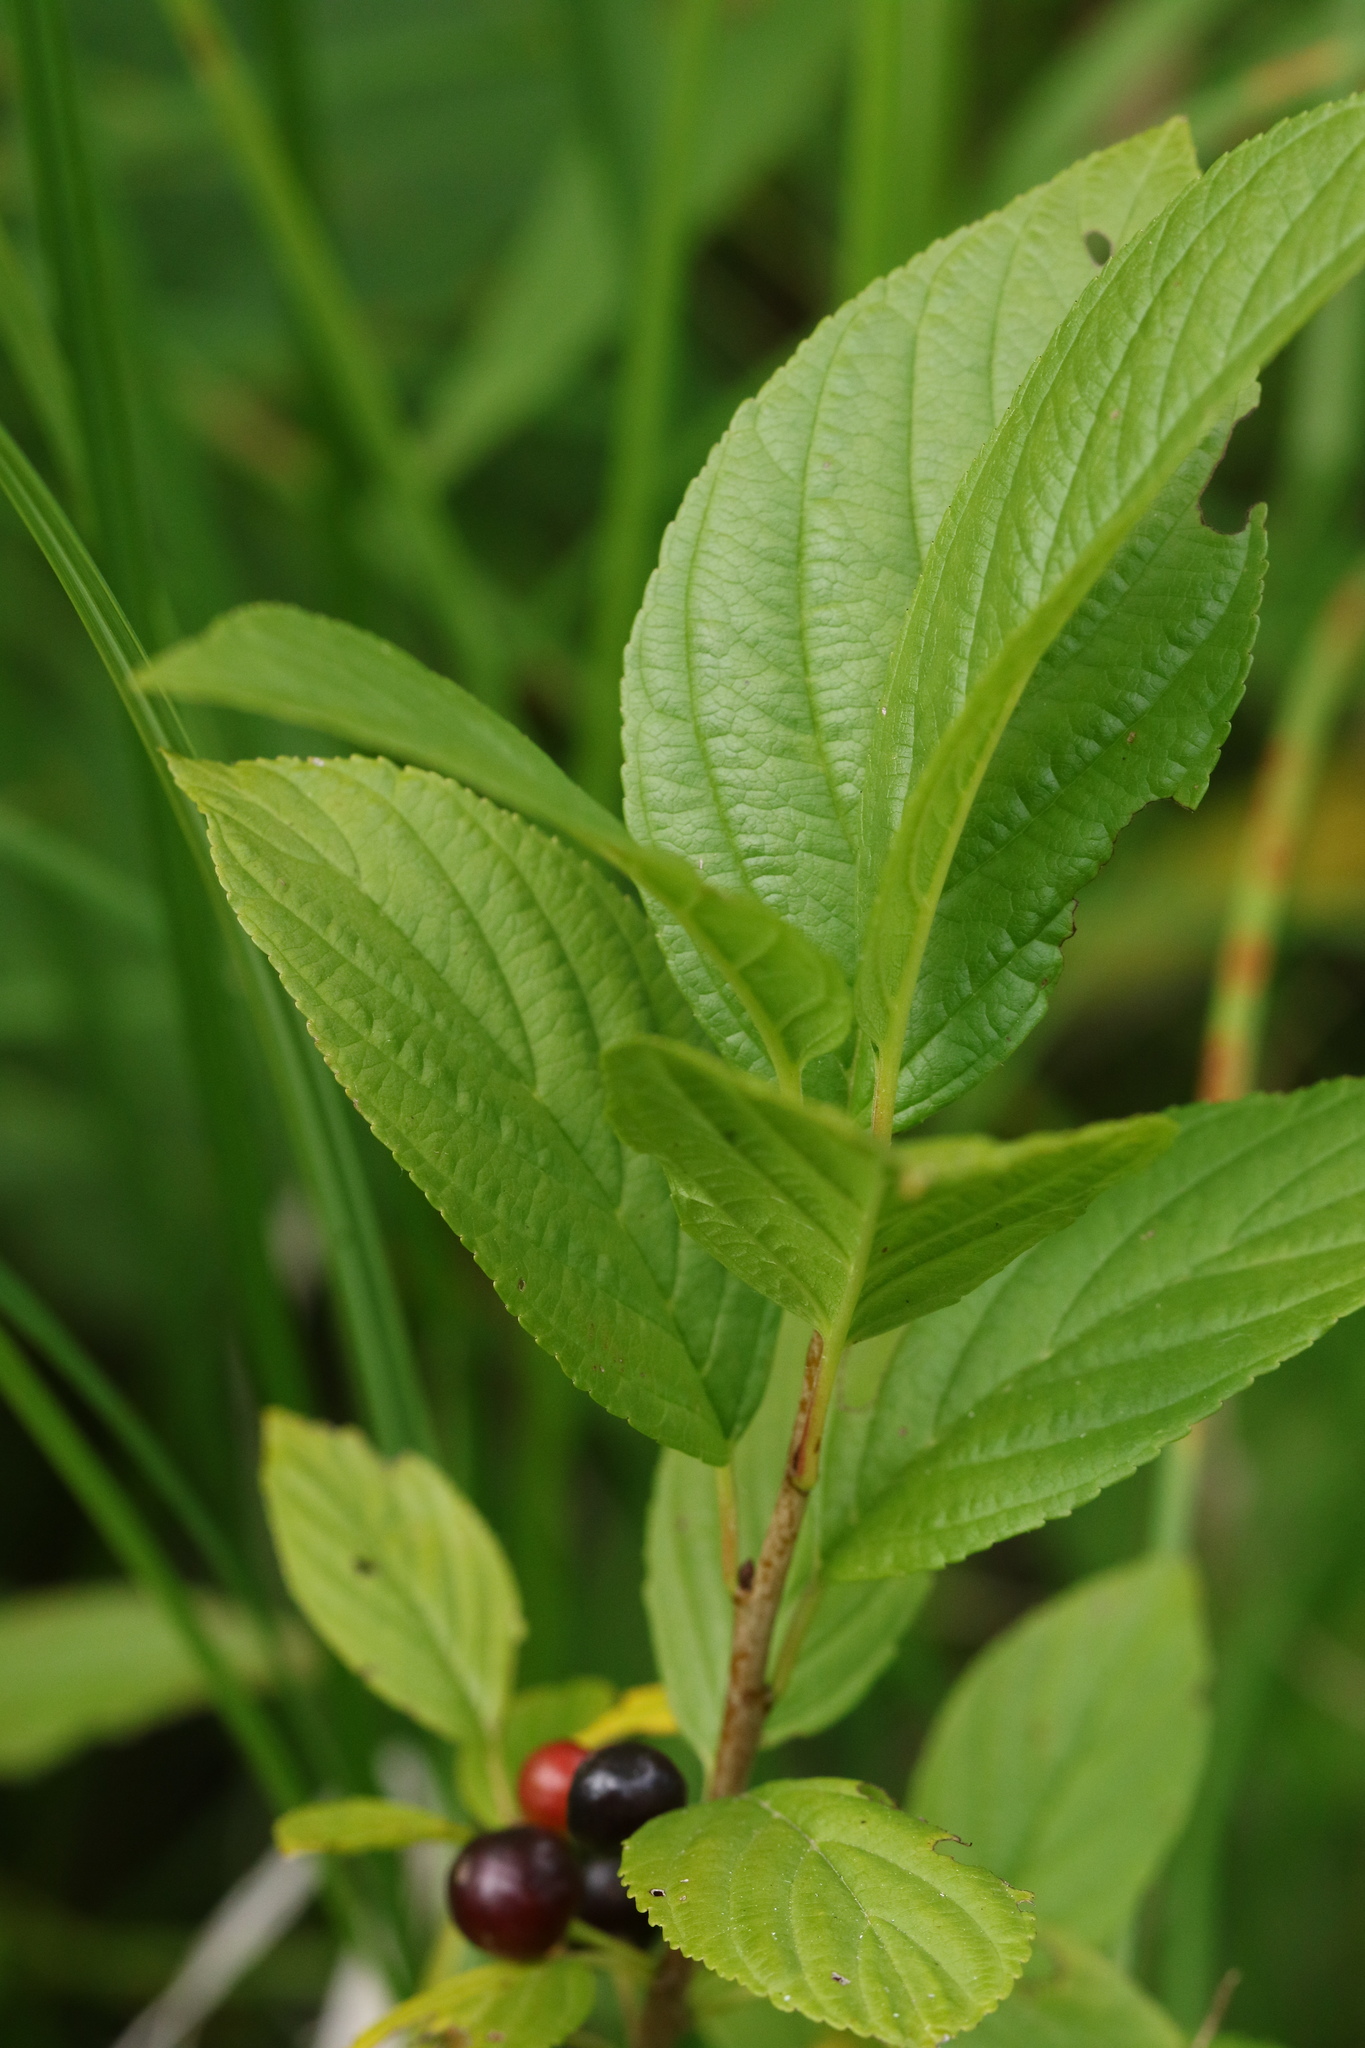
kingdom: Plantae
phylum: Tracheophyta
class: Magnoliopsida
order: Rosales
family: Rhamnaceae
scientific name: Rhamnaceae
